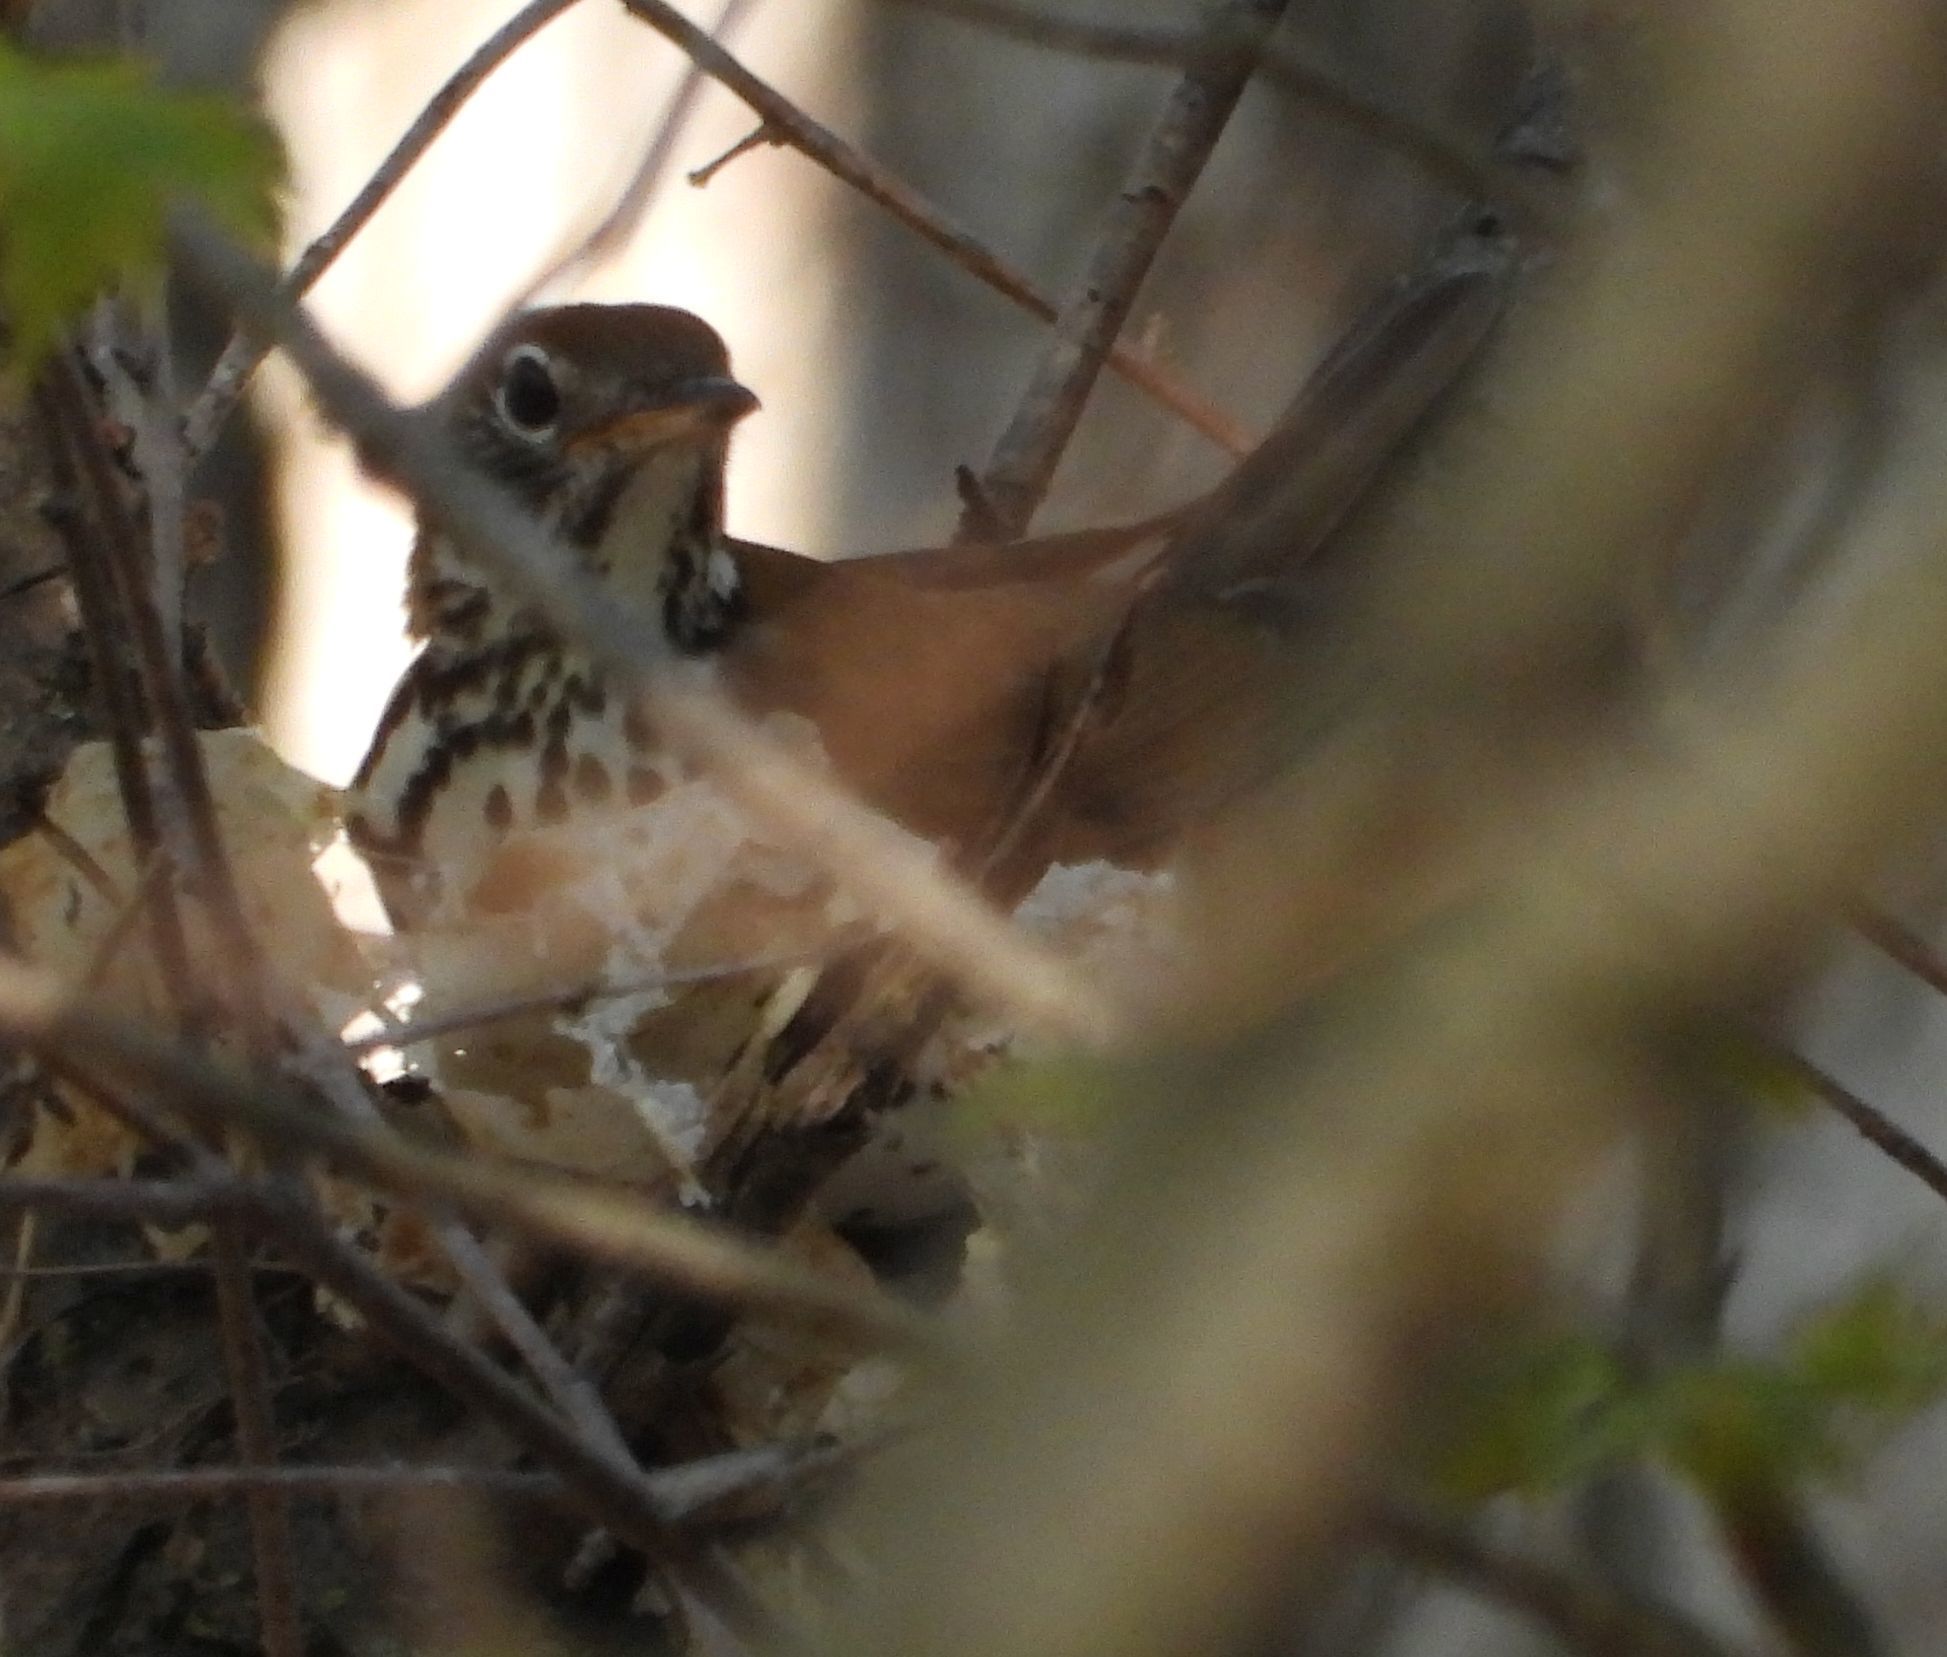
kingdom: Animalia
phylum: Chordata
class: Aves
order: Passeriformes
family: Turdidae
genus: Hylocichla
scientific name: Hylocichla mustelina
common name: Wood thrush
